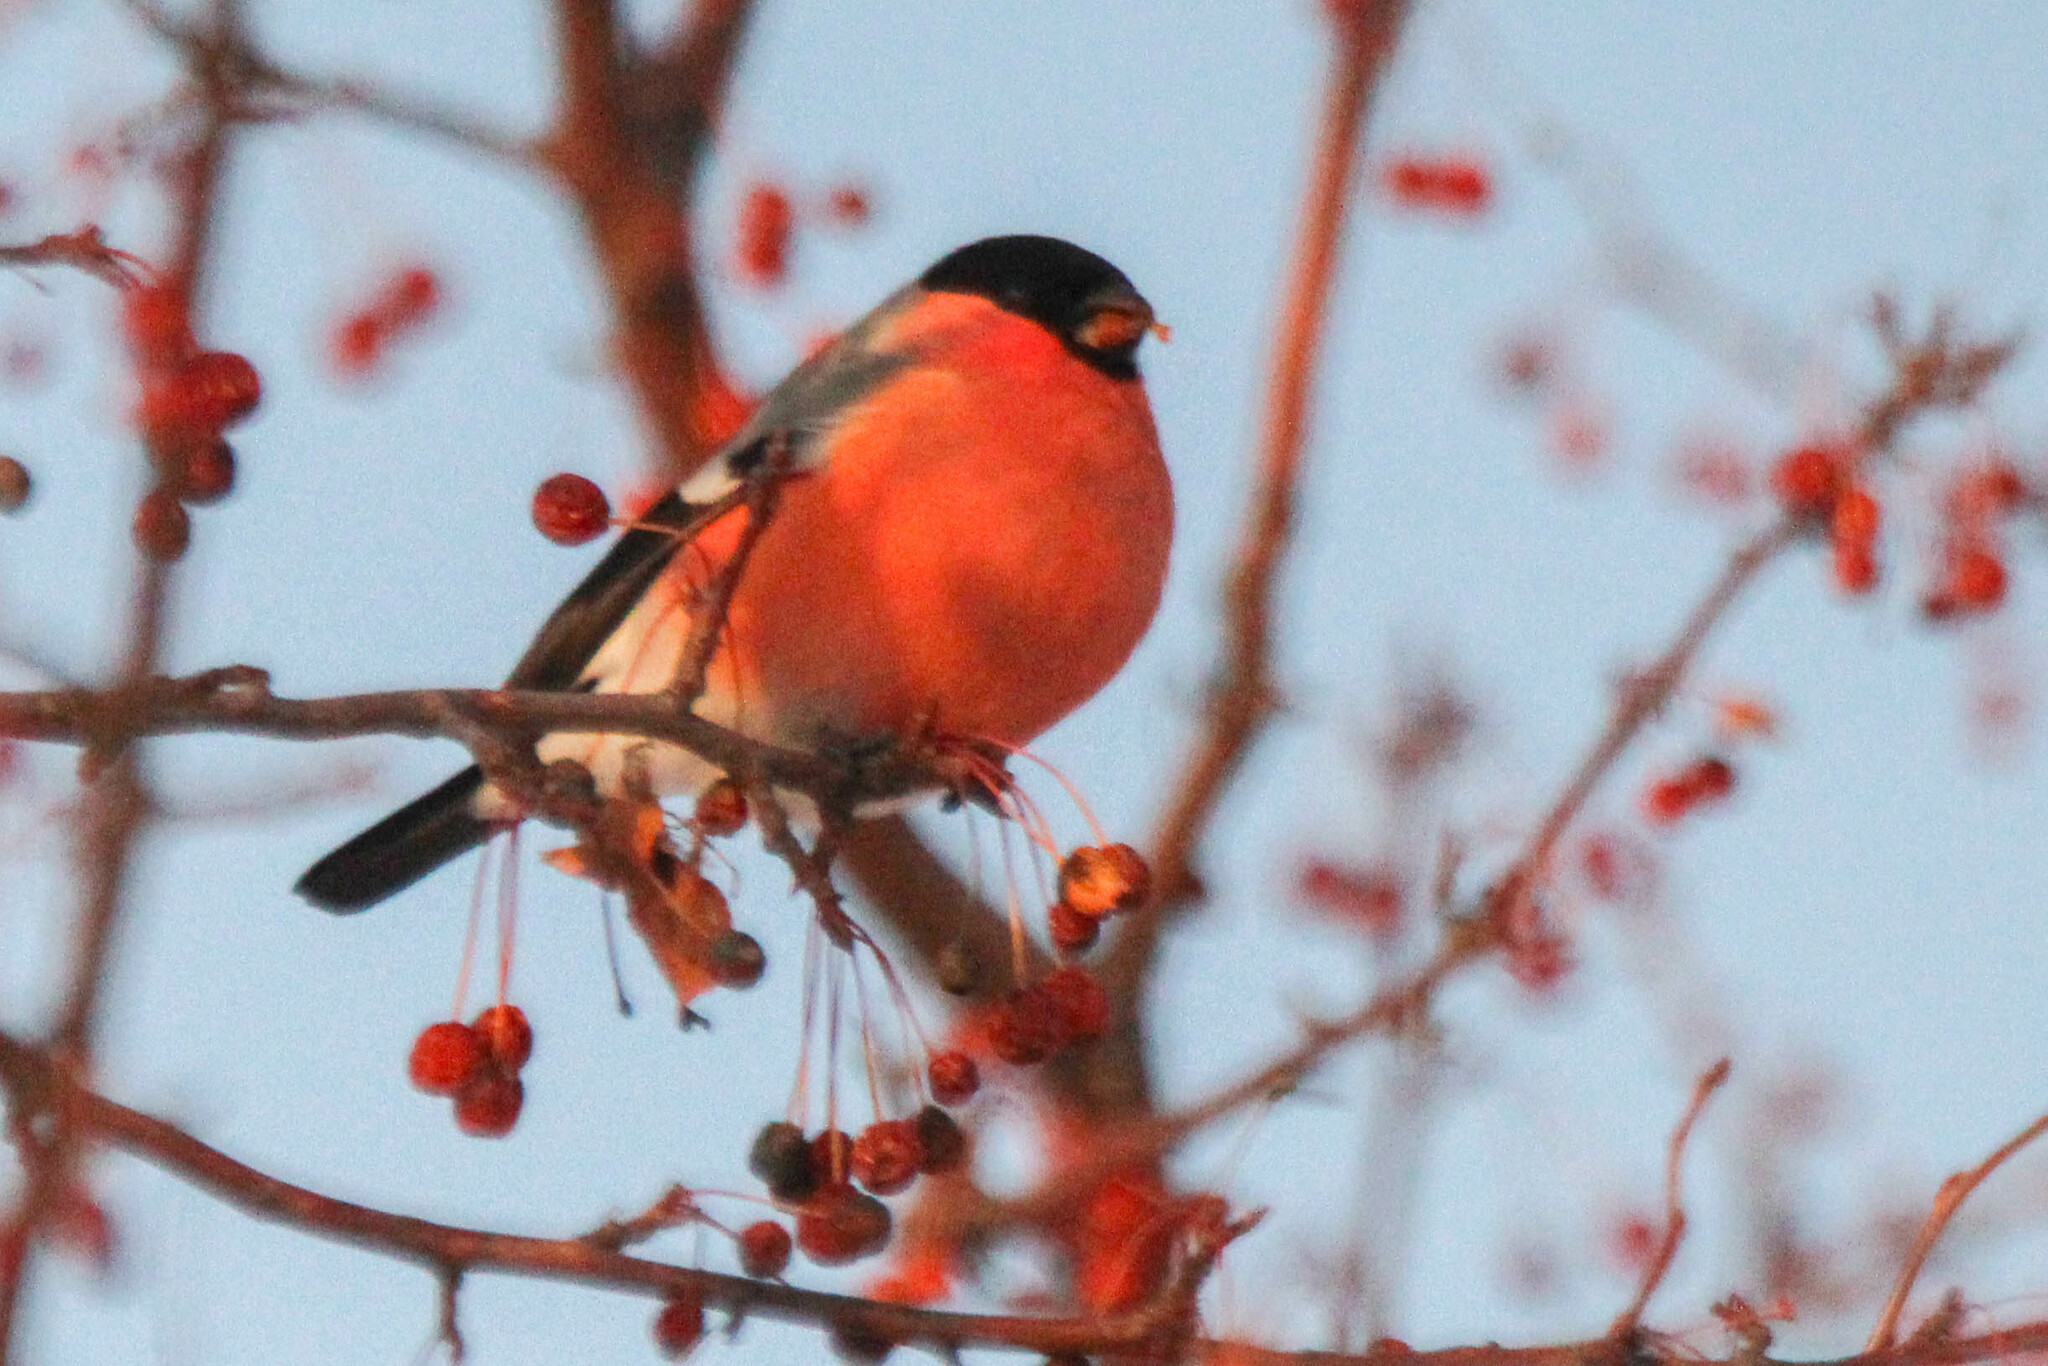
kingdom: Animalia
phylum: Chordata
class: Aves
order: Passeriformes
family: Fringillidae
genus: Pyrrhula
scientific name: Pyrrhula pyrrhula
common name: Eurasian bullfinch
